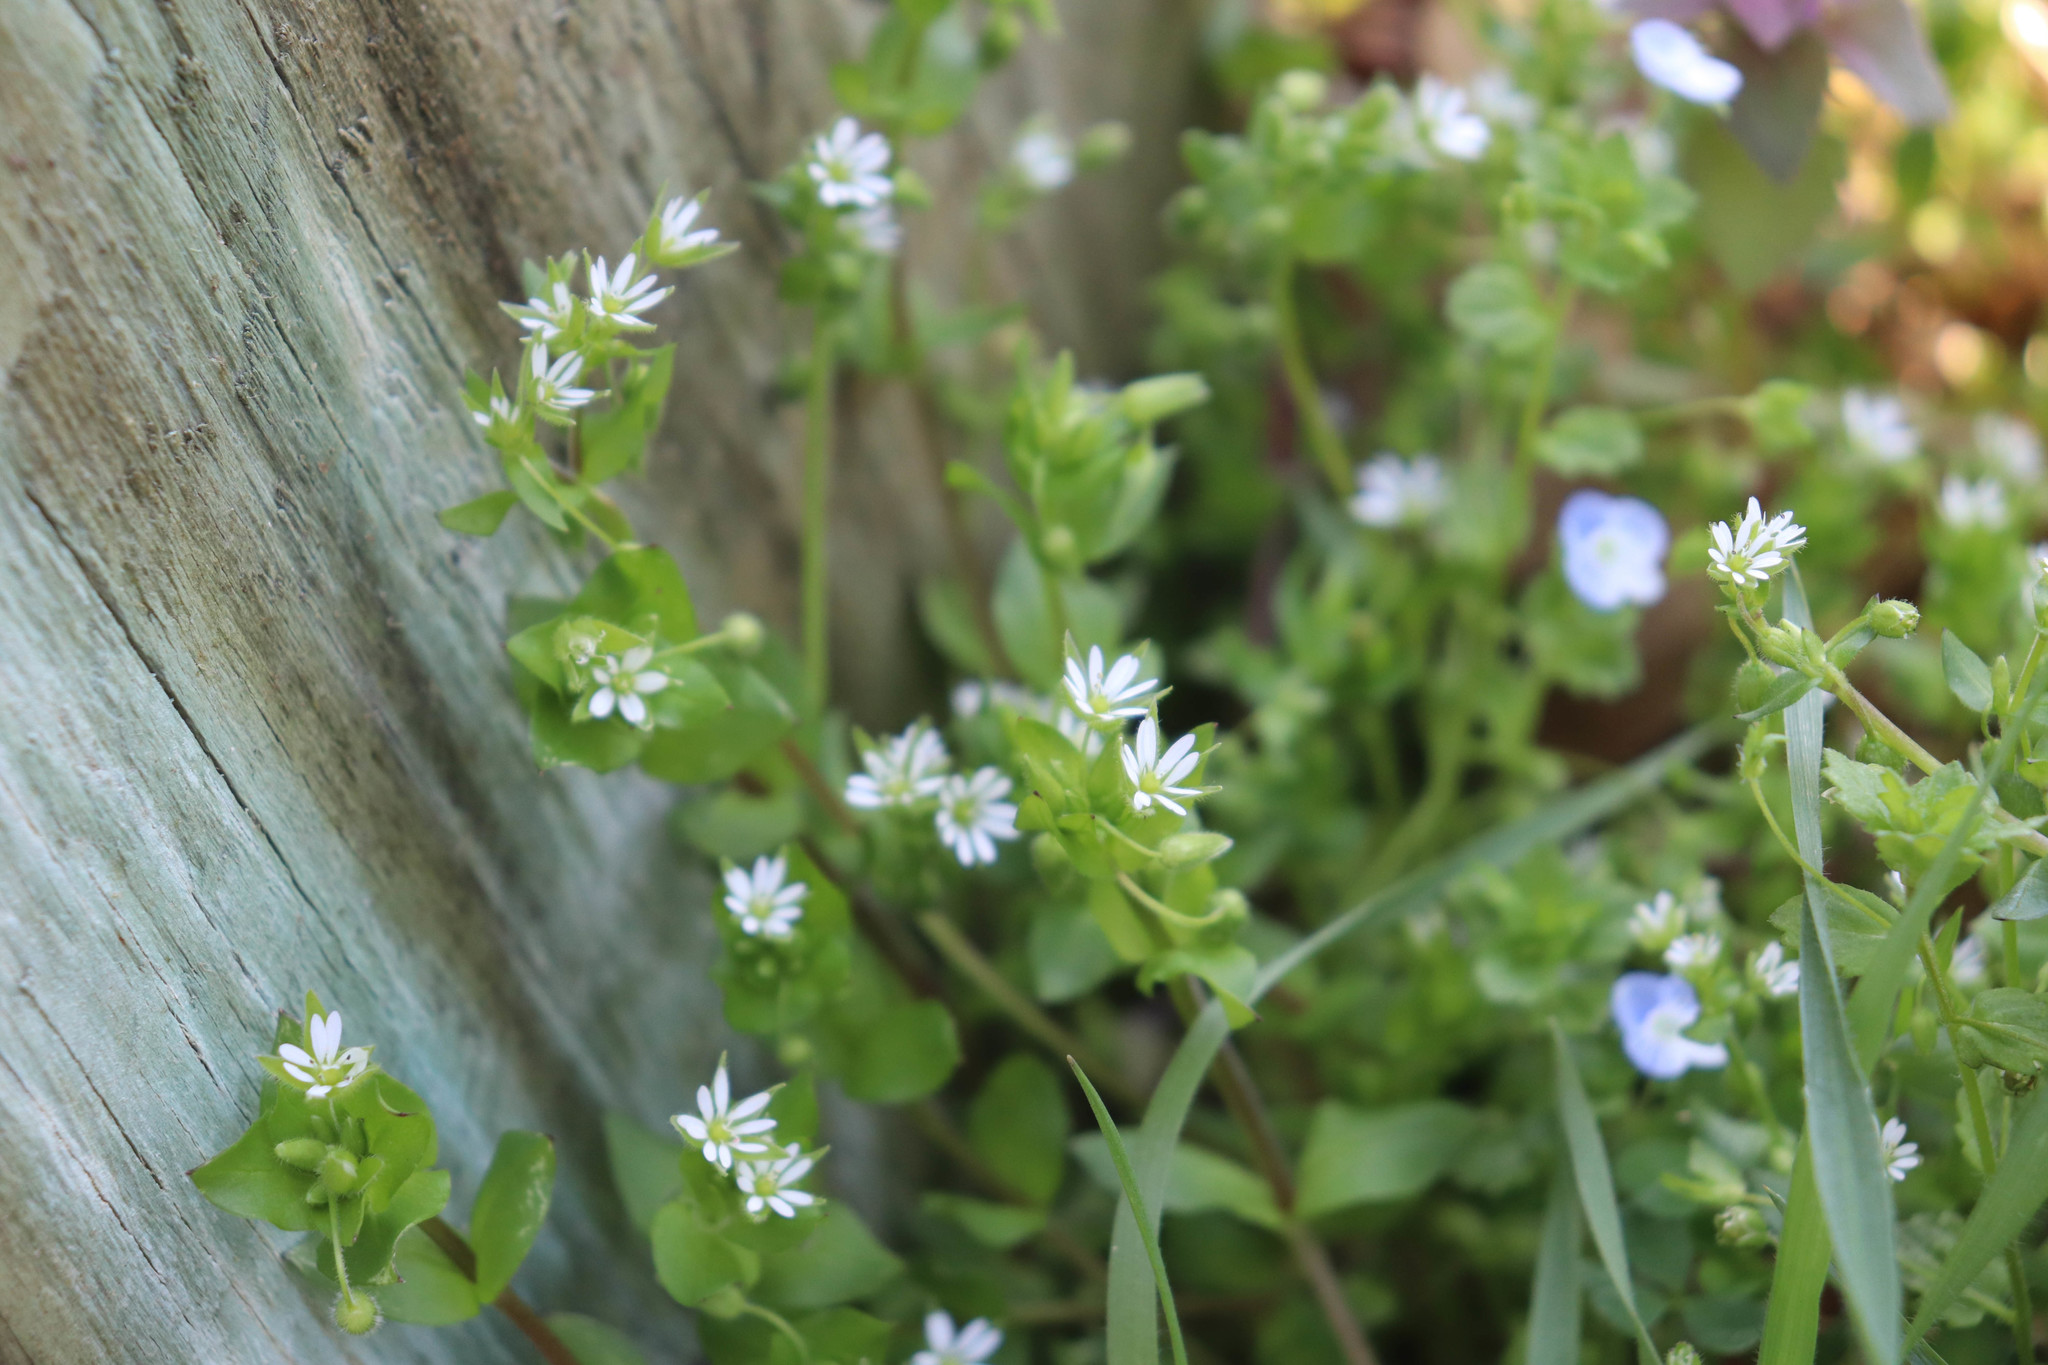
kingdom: Plantae
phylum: Tracheophyta
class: Magnoliopsida
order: Caryophyllales
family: Caryophyllaceae
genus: Stellaria
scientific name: Stellaria media
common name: Common chickweed
